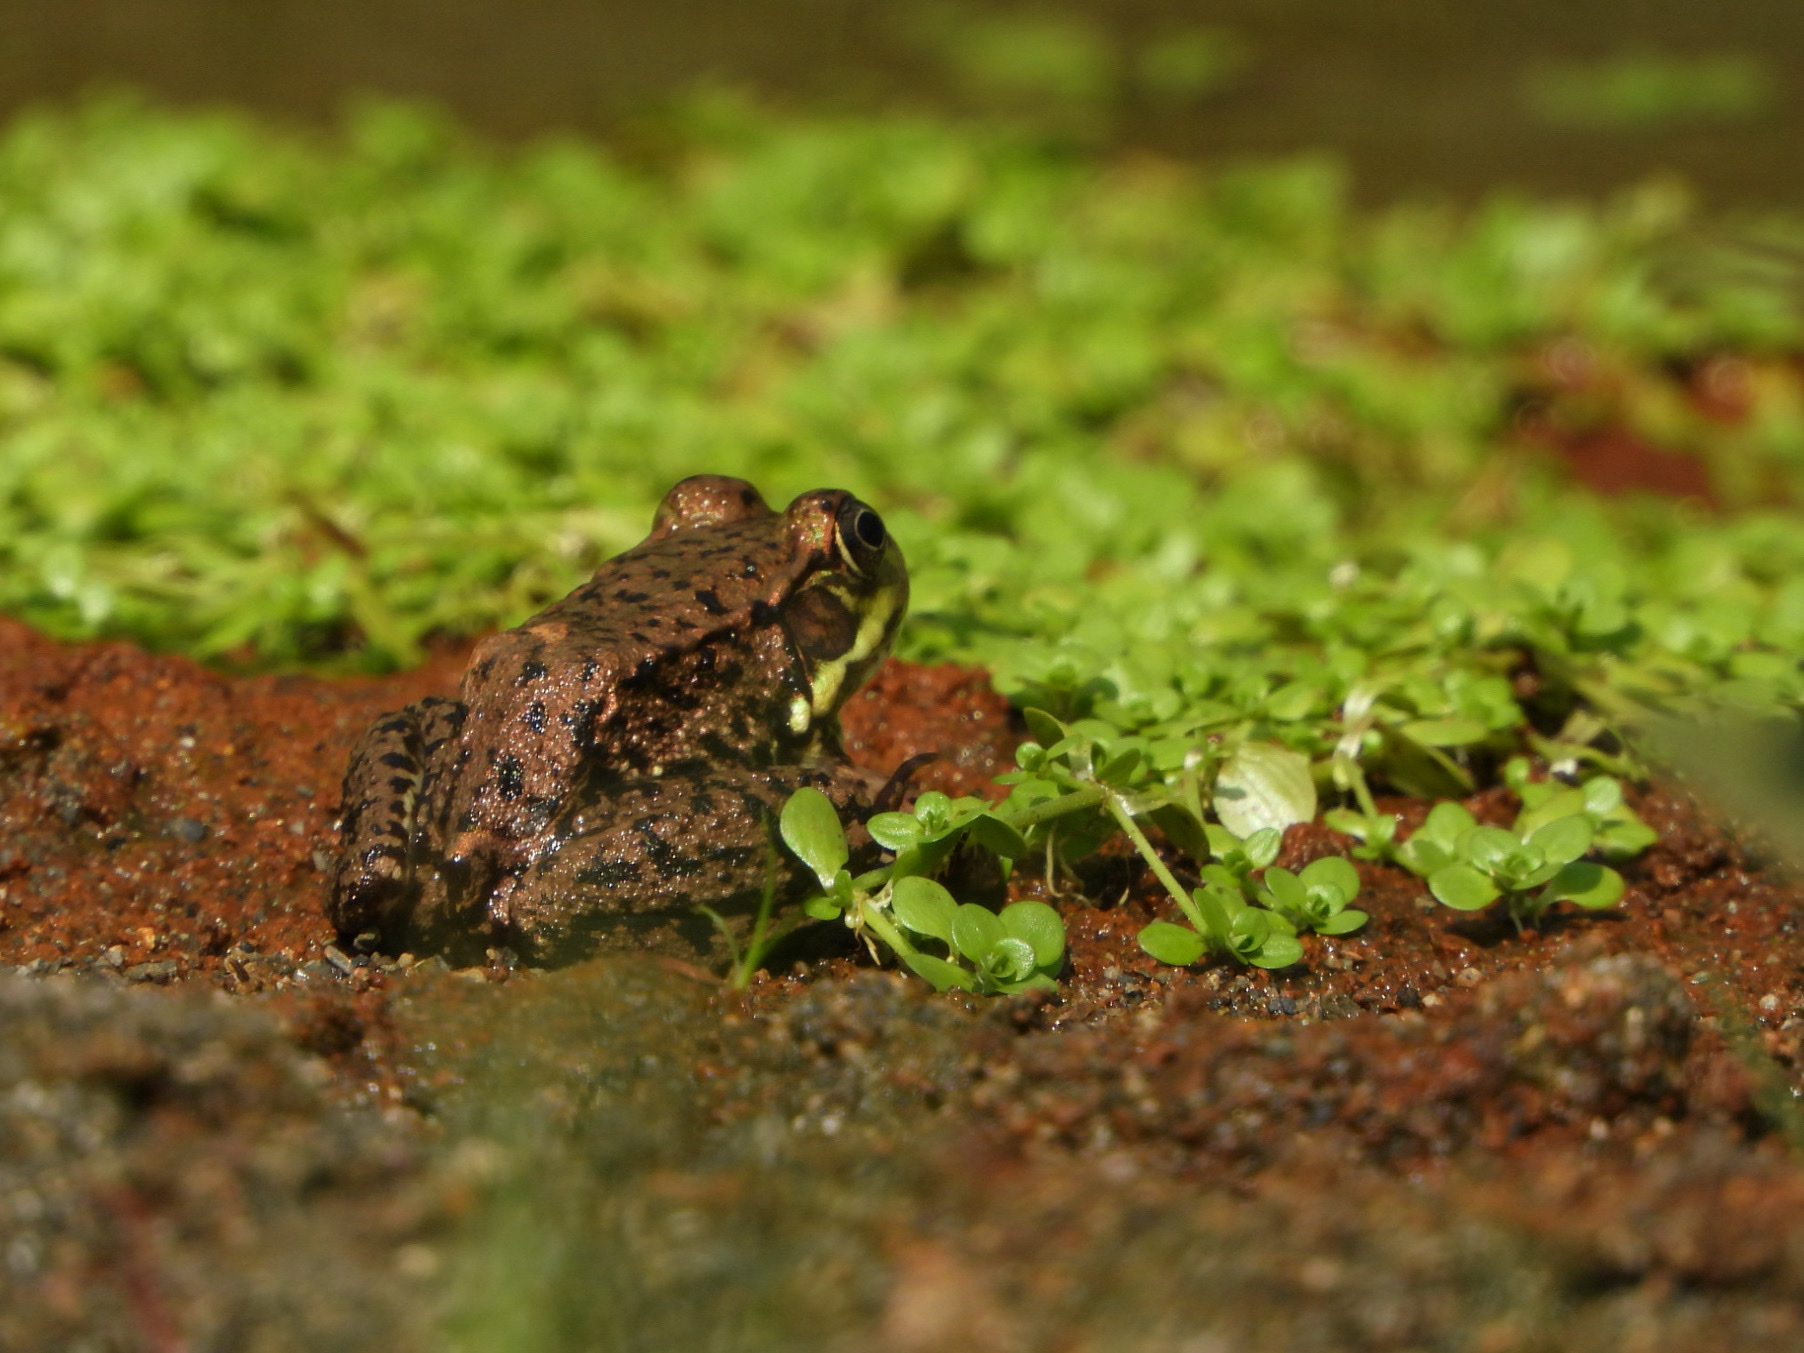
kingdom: Animalia
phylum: Chordata
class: Amphibia
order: Anura
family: Ranidae
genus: Lithobates
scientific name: Lithobates clamitans
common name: Green frog
